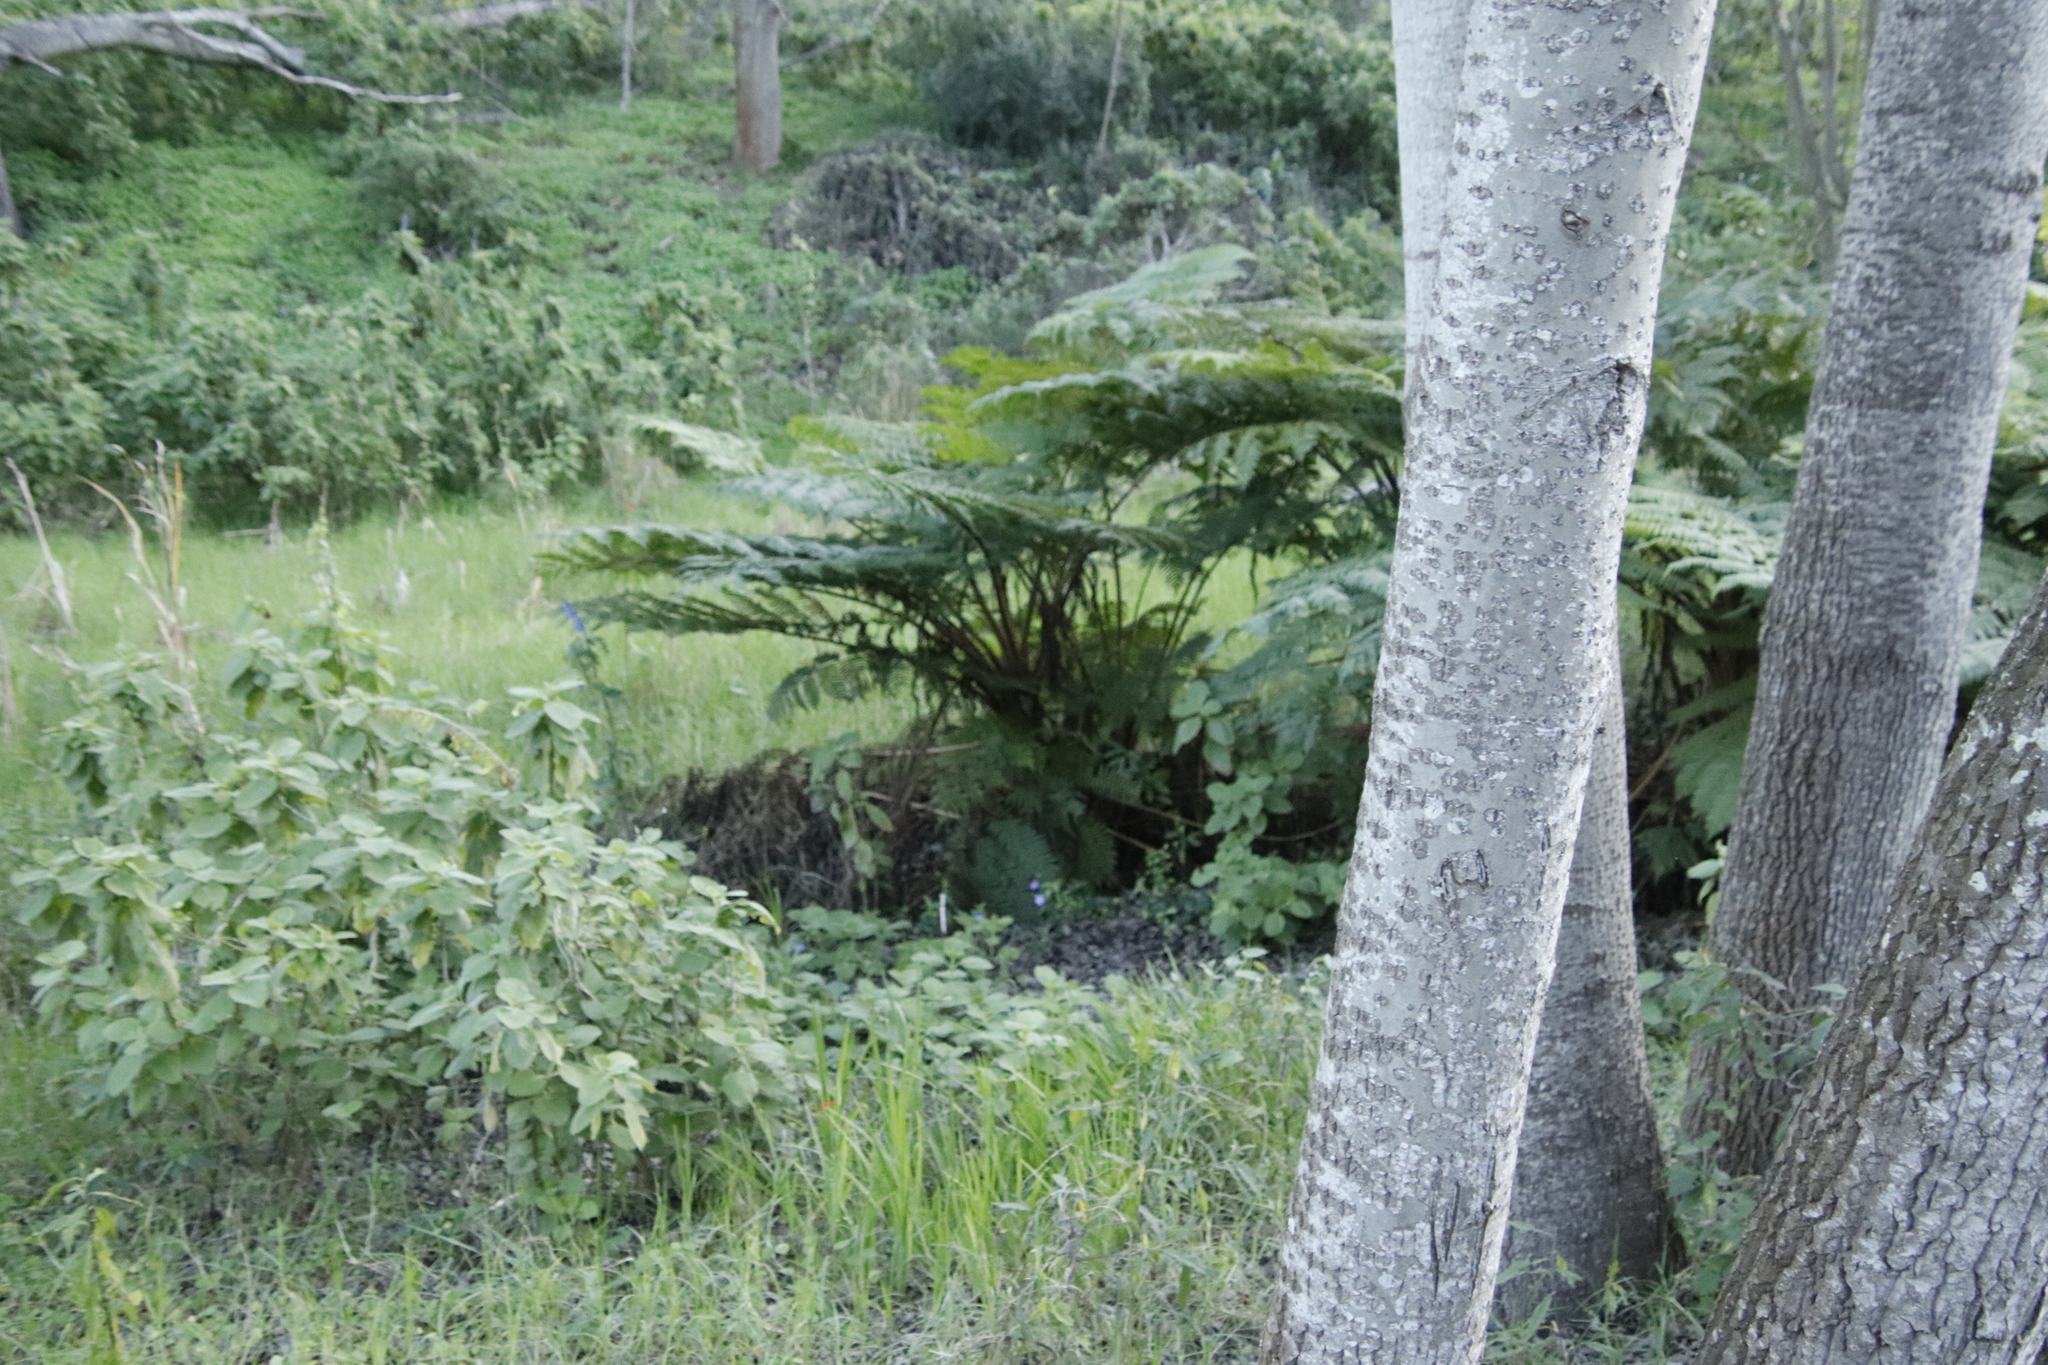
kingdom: Plantae
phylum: Tracheophyta
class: Polypodiopsida
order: Cyatheales
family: Cyatheaceae
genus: Sphaeropteris
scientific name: Sphaeropteris cooperi
